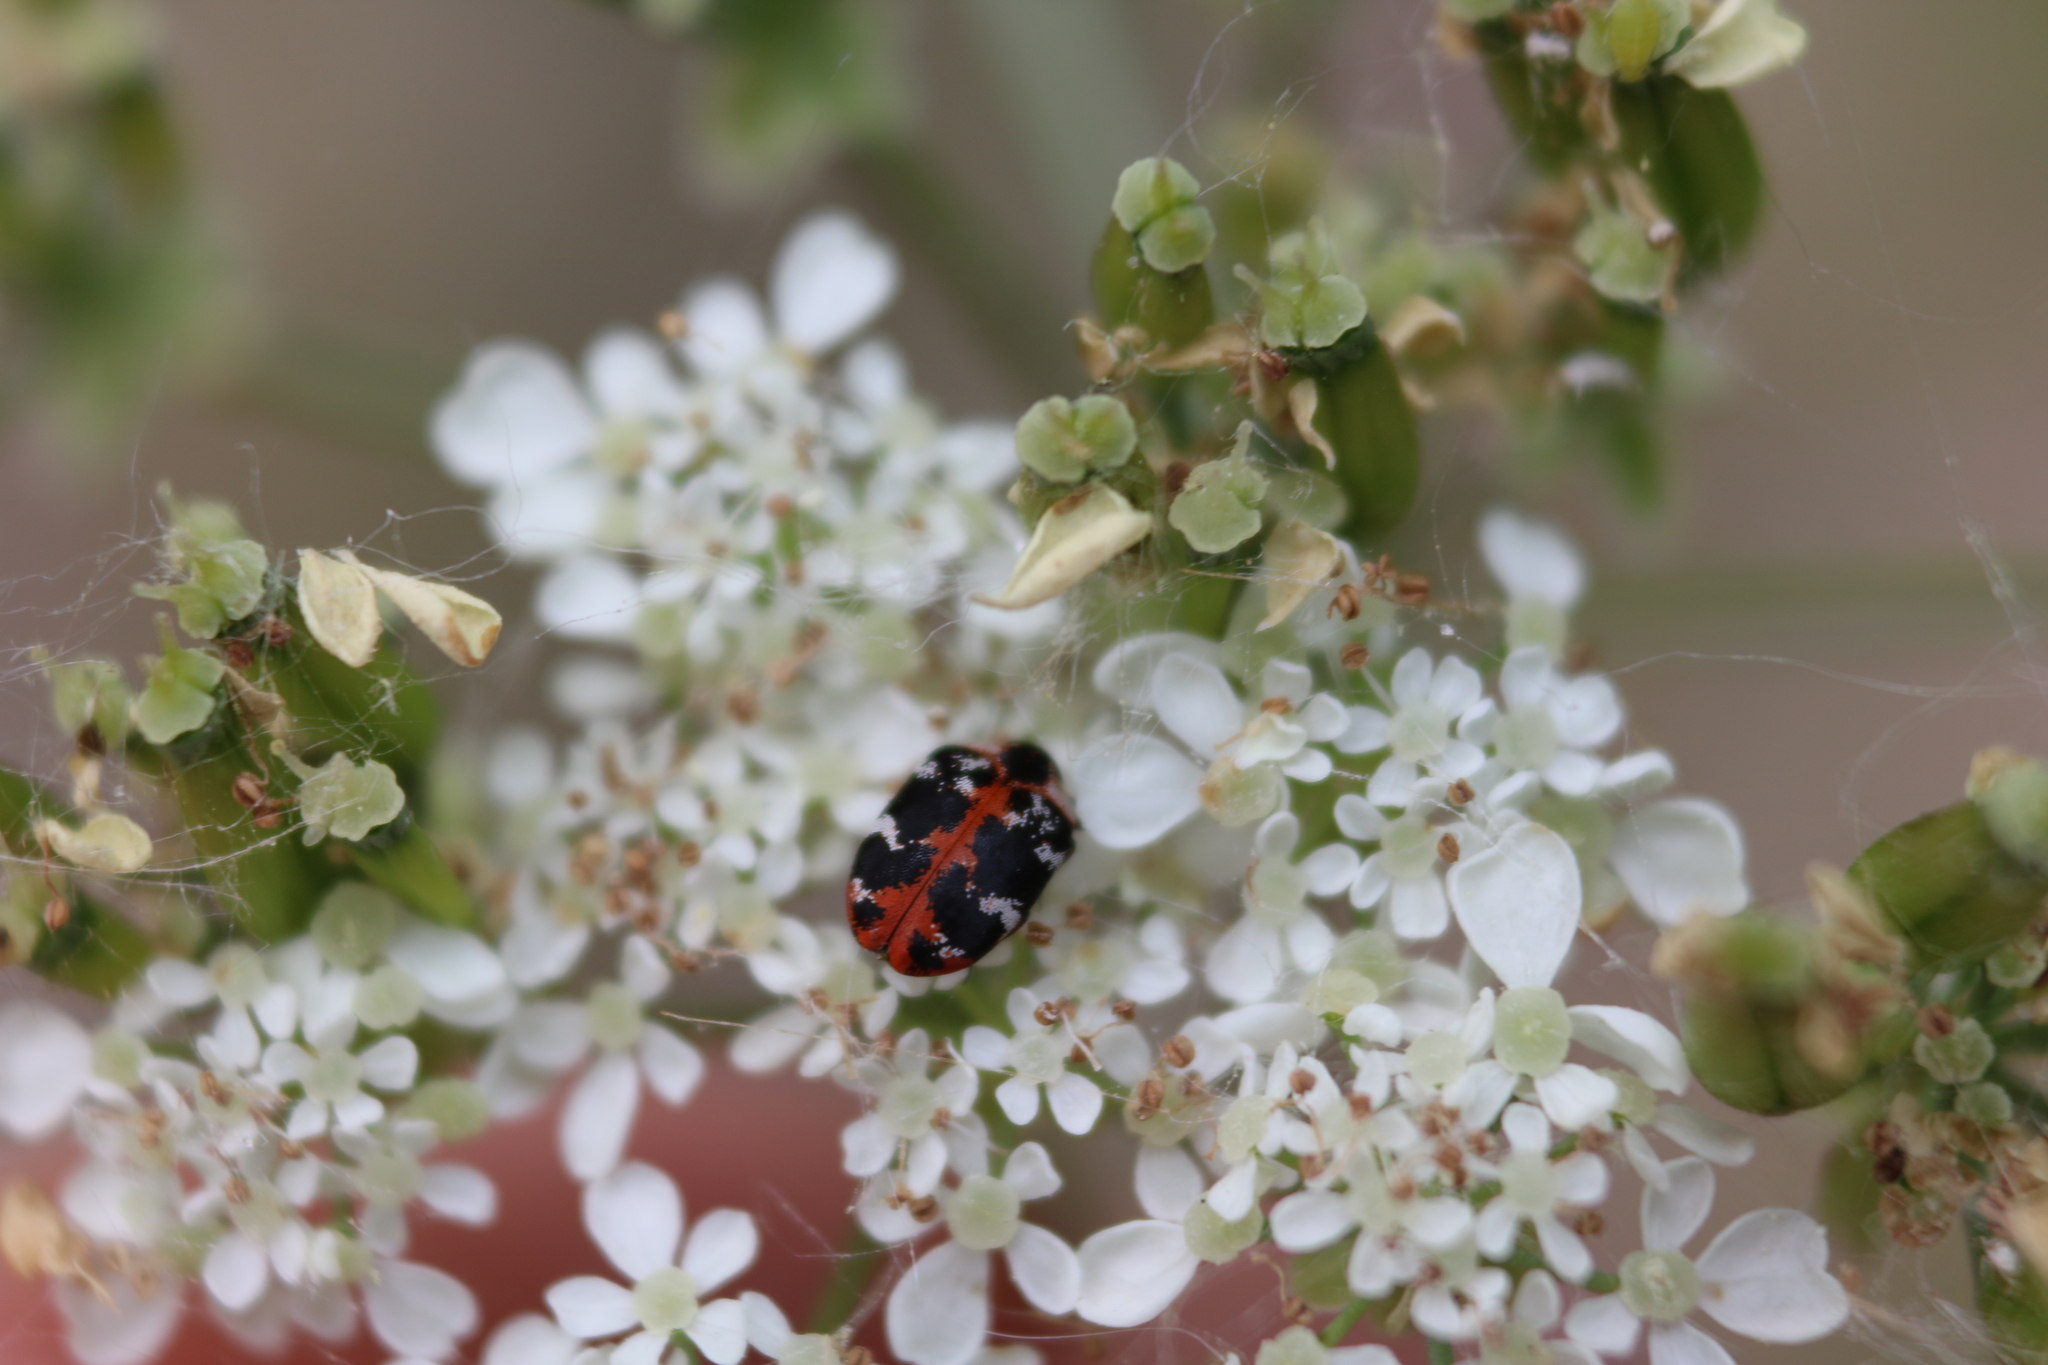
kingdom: Animalia
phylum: Arthropoda
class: Insecta
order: Coleoptera
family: Dermestidae
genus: Anthrenus
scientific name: Anthrenus scrophulariae
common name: Buffalo carpet beetle
